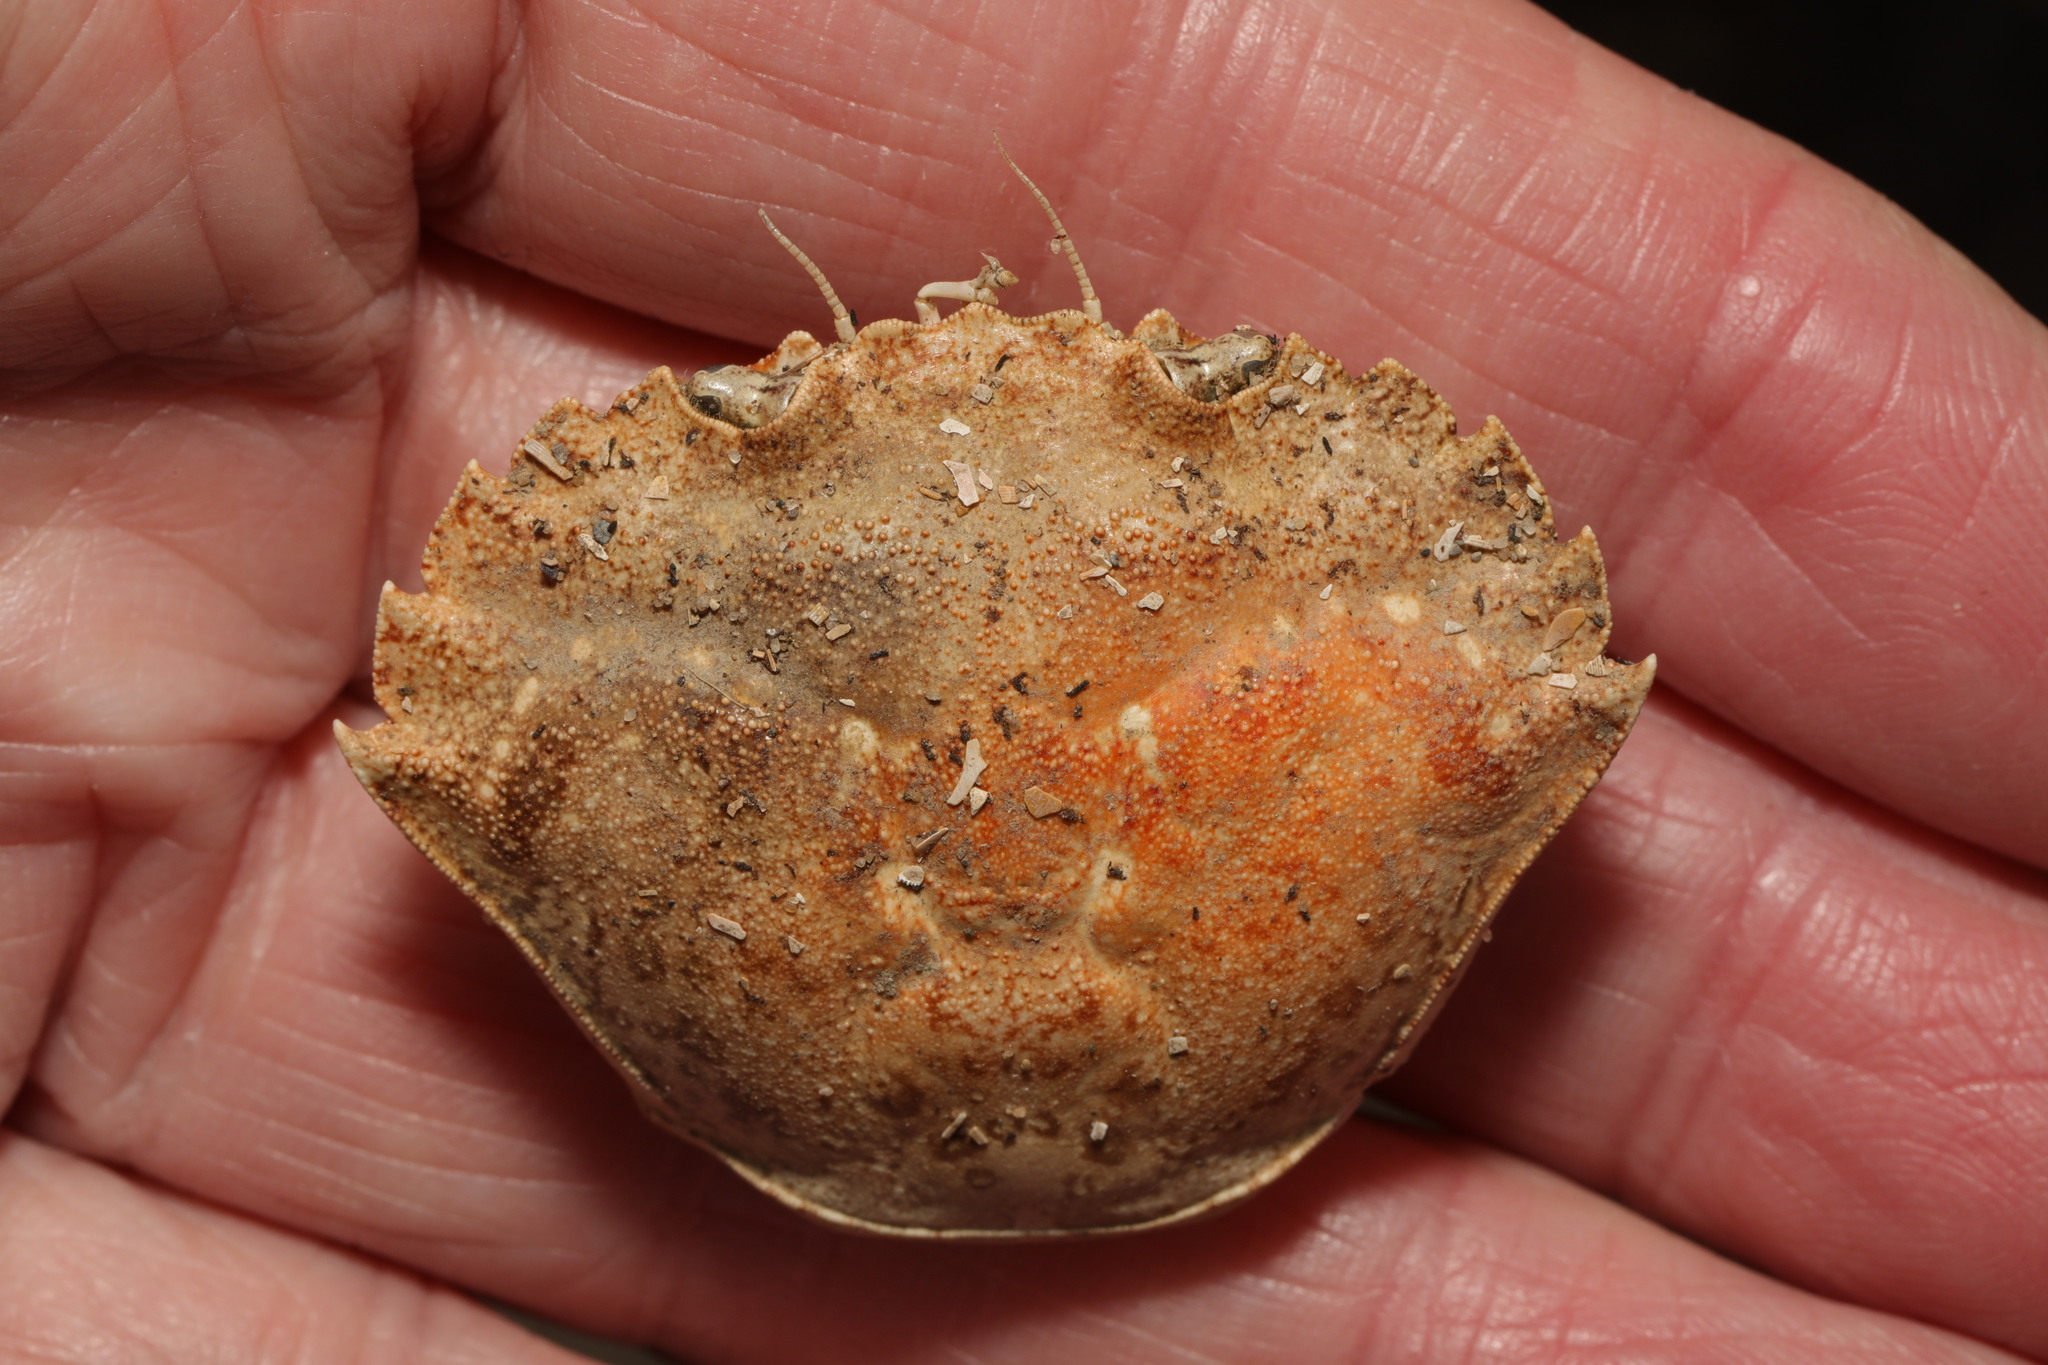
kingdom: Animalia
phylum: Arthropoda
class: Malacostraca
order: Decapoda
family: Carcinidae
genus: Carcinus
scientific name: Carcinus maenas
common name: European green crab
